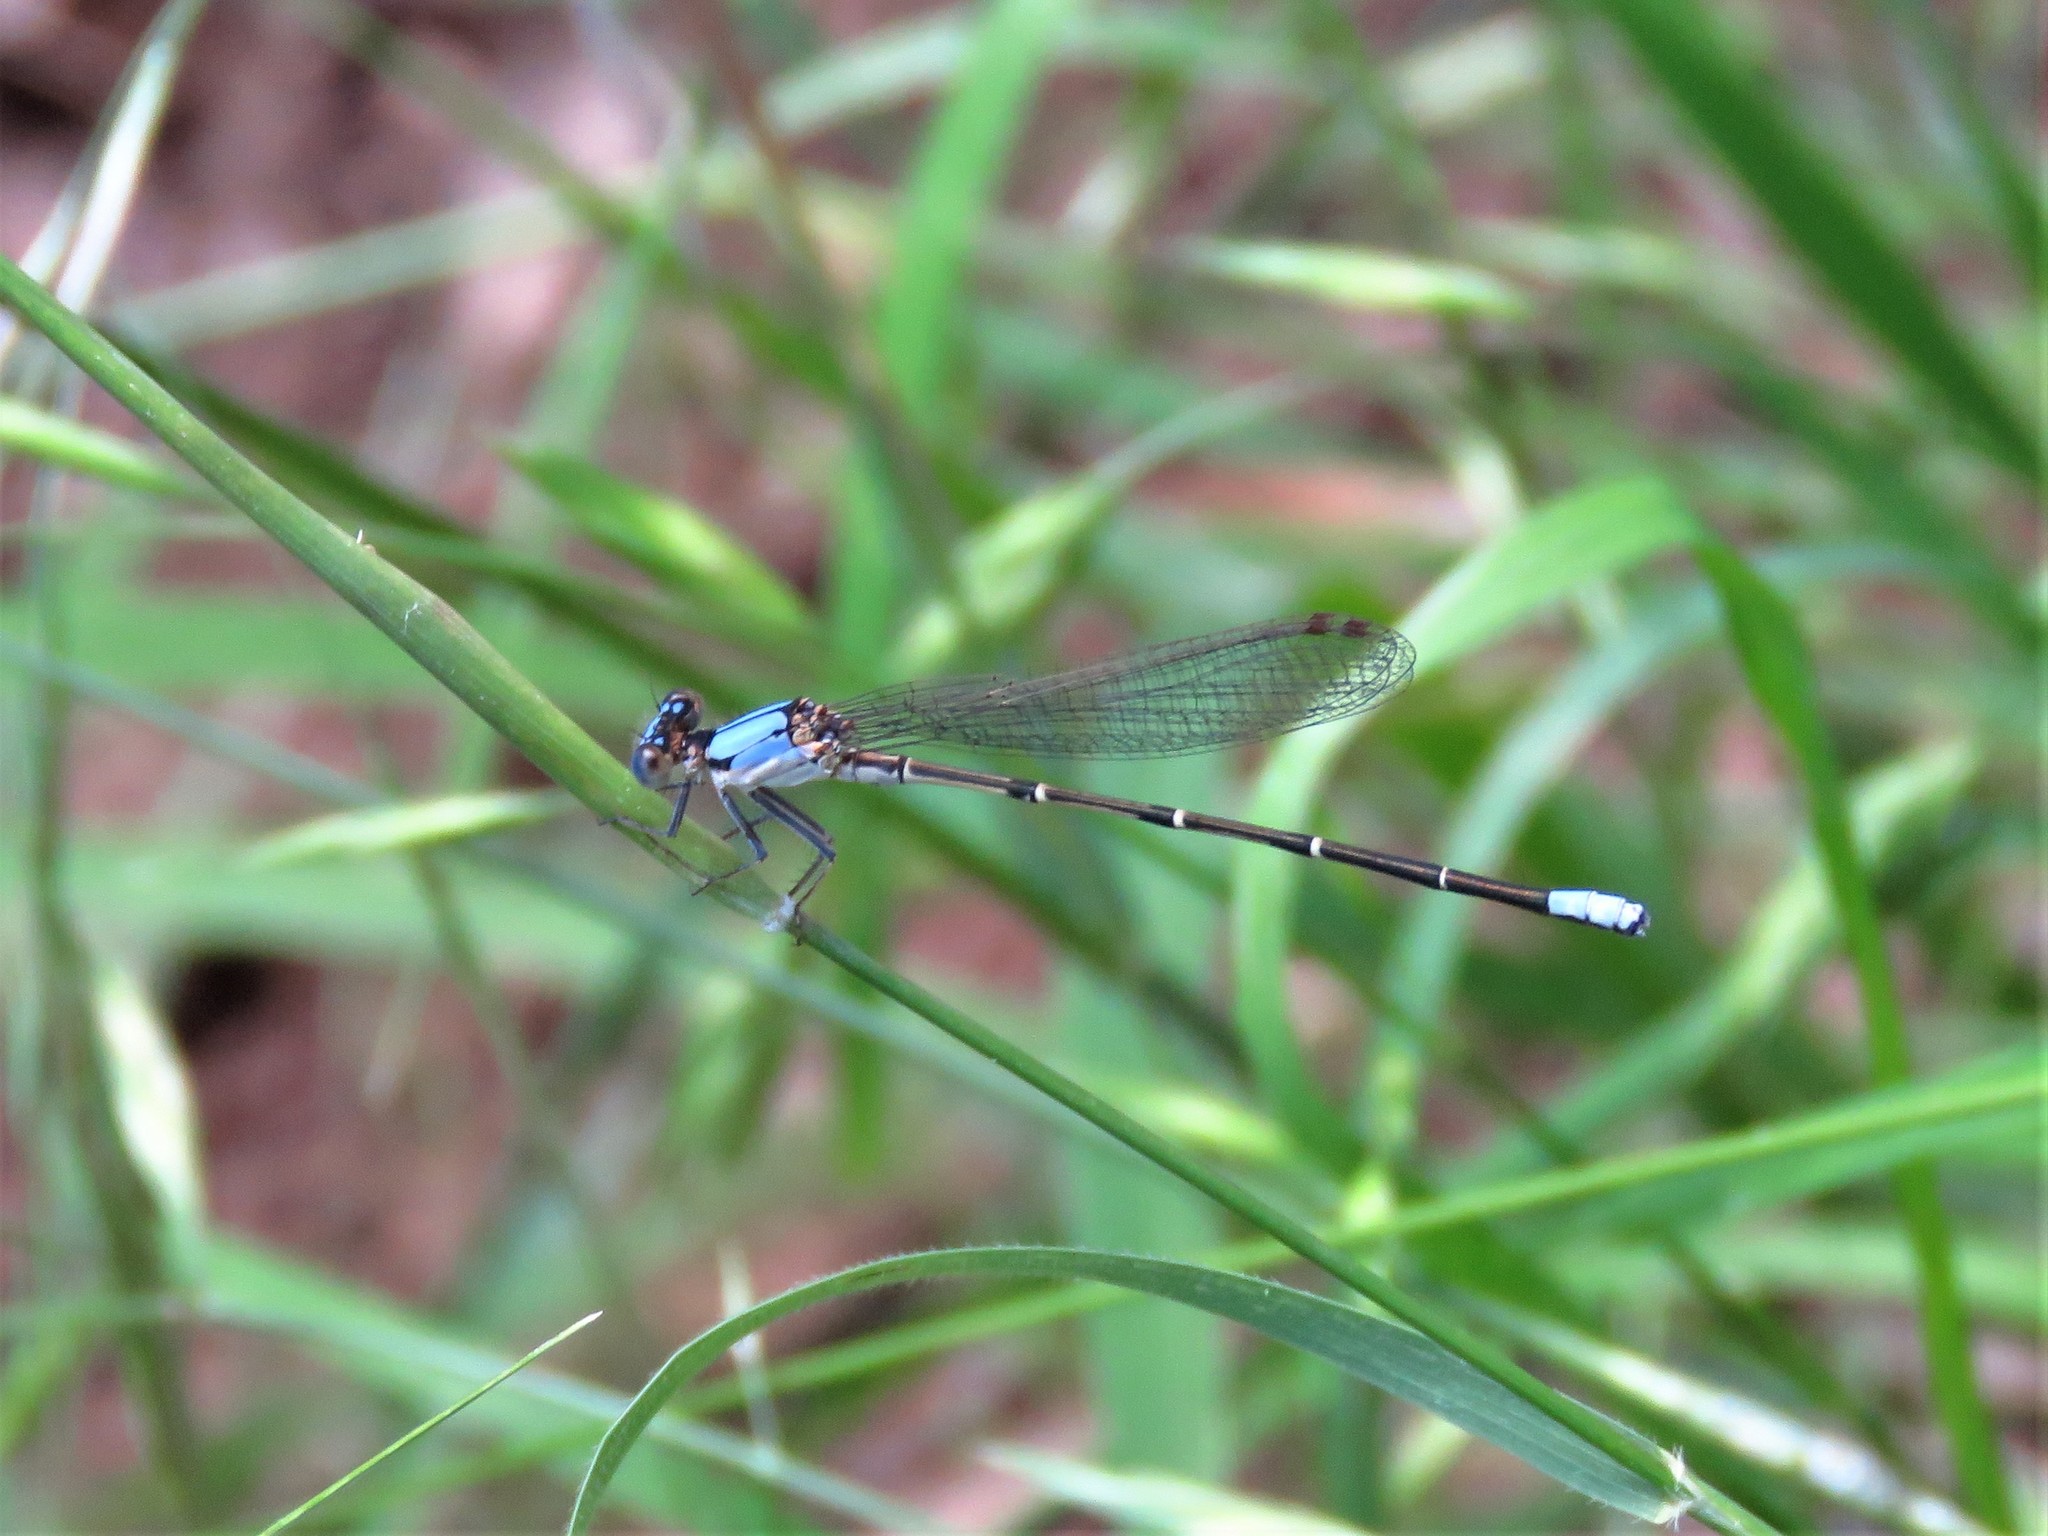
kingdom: Animalia
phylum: Arthropoda
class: Insecta
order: Odonata
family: Coenagrionidae
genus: Argia
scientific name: Argia apicalis
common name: Blue-fronted dancer
